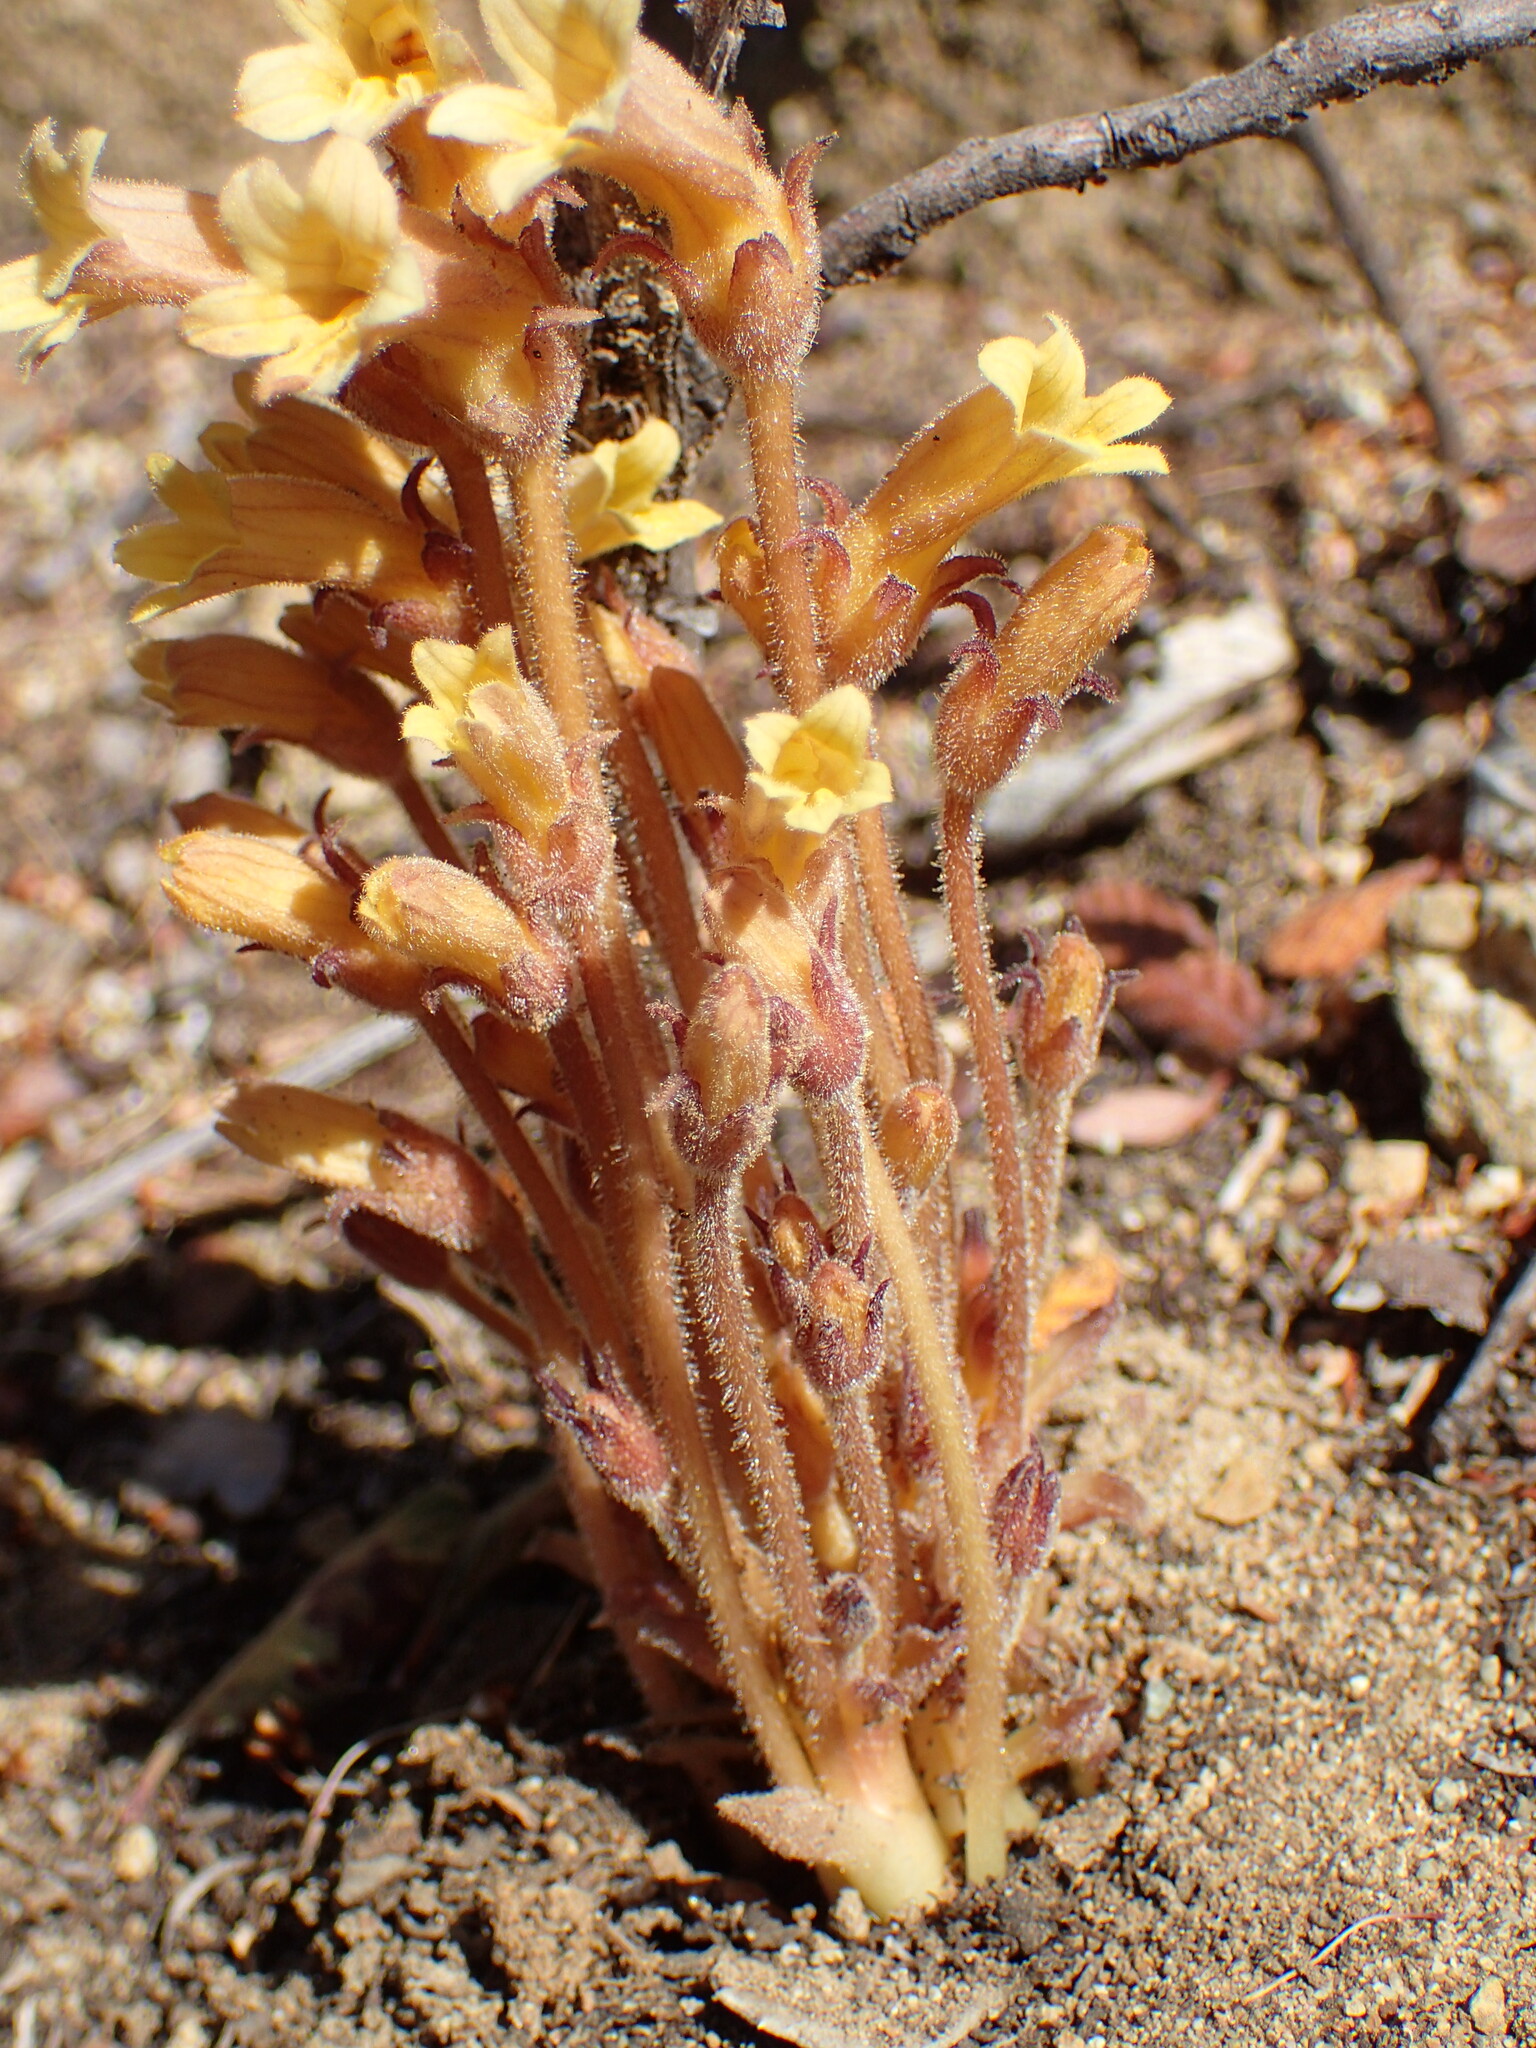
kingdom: Plantae
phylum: Tracheophyta
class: Magnoliopsida
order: Lamiales
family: Orobanchaceae
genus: Aphyllon
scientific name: Aphyllon franciscanum
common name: San francisco broomrape
